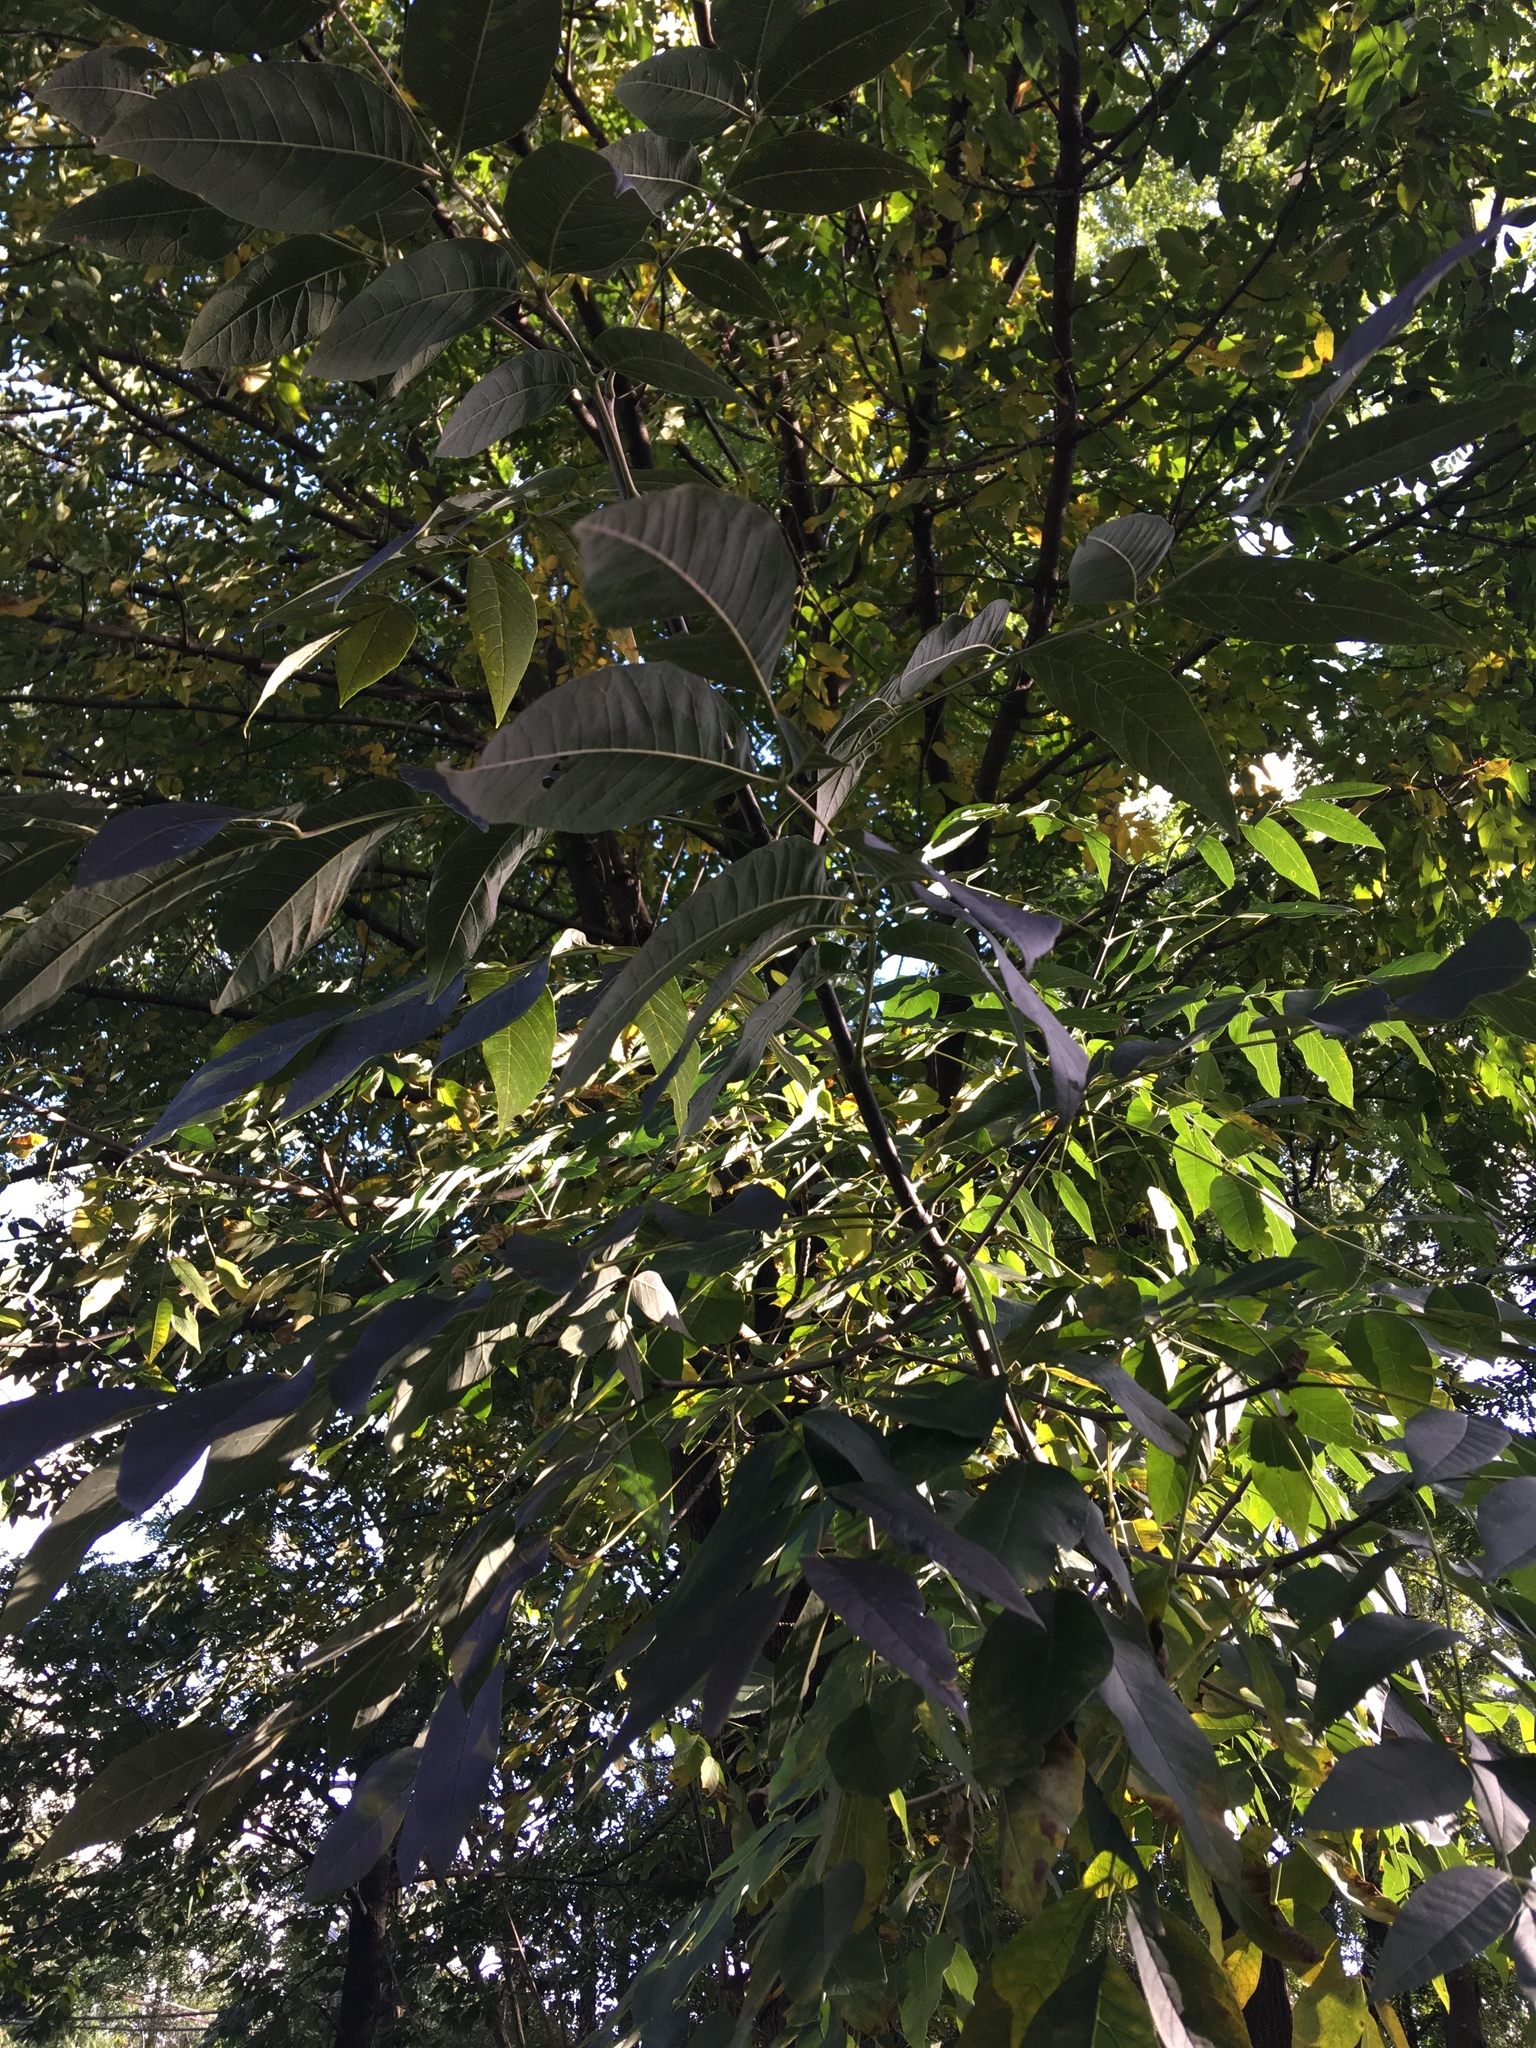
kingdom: Plantae
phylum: Tracheophyta
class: Magnoliopsida
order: Lamiales
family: Oleaceae
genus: Fraxinus
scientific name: Fraxinus americana
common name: White ash
